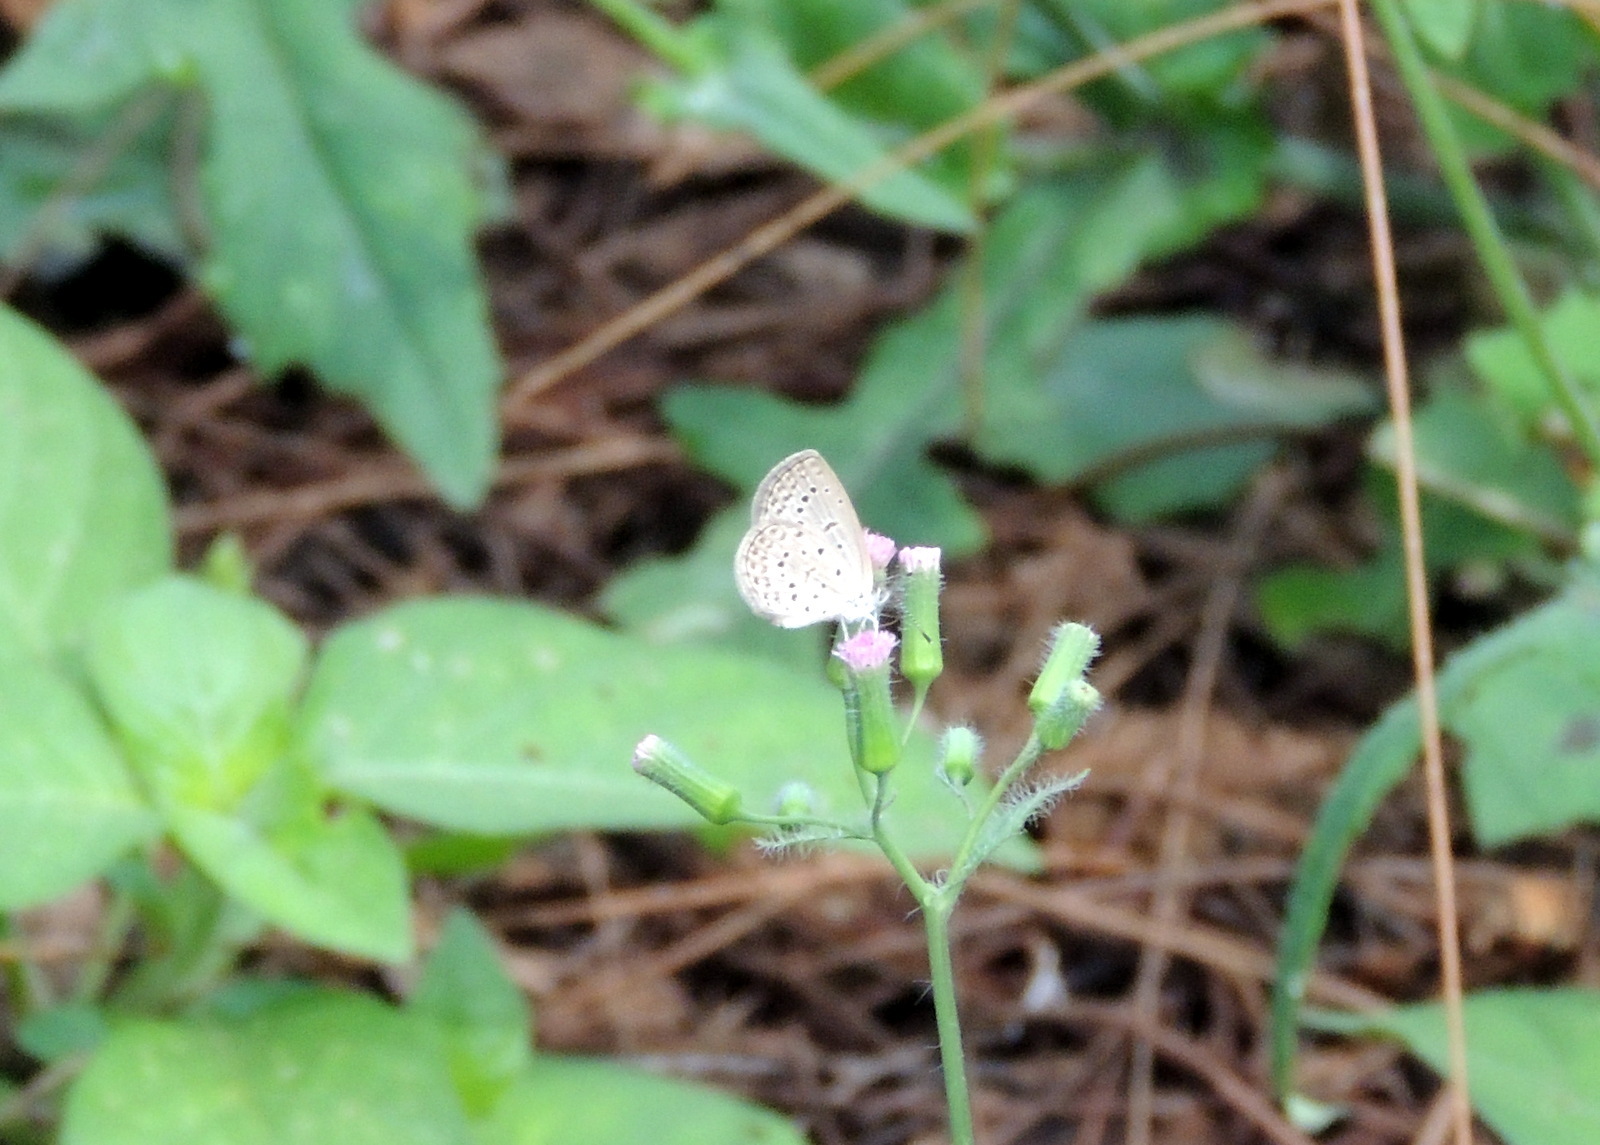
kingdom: Animalia
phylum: Arthropoda
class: Insecta
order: Lepidoptera
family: Lycaenidae
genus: Zizeeria
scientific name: Zizeeria knysna
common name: African grass blue
